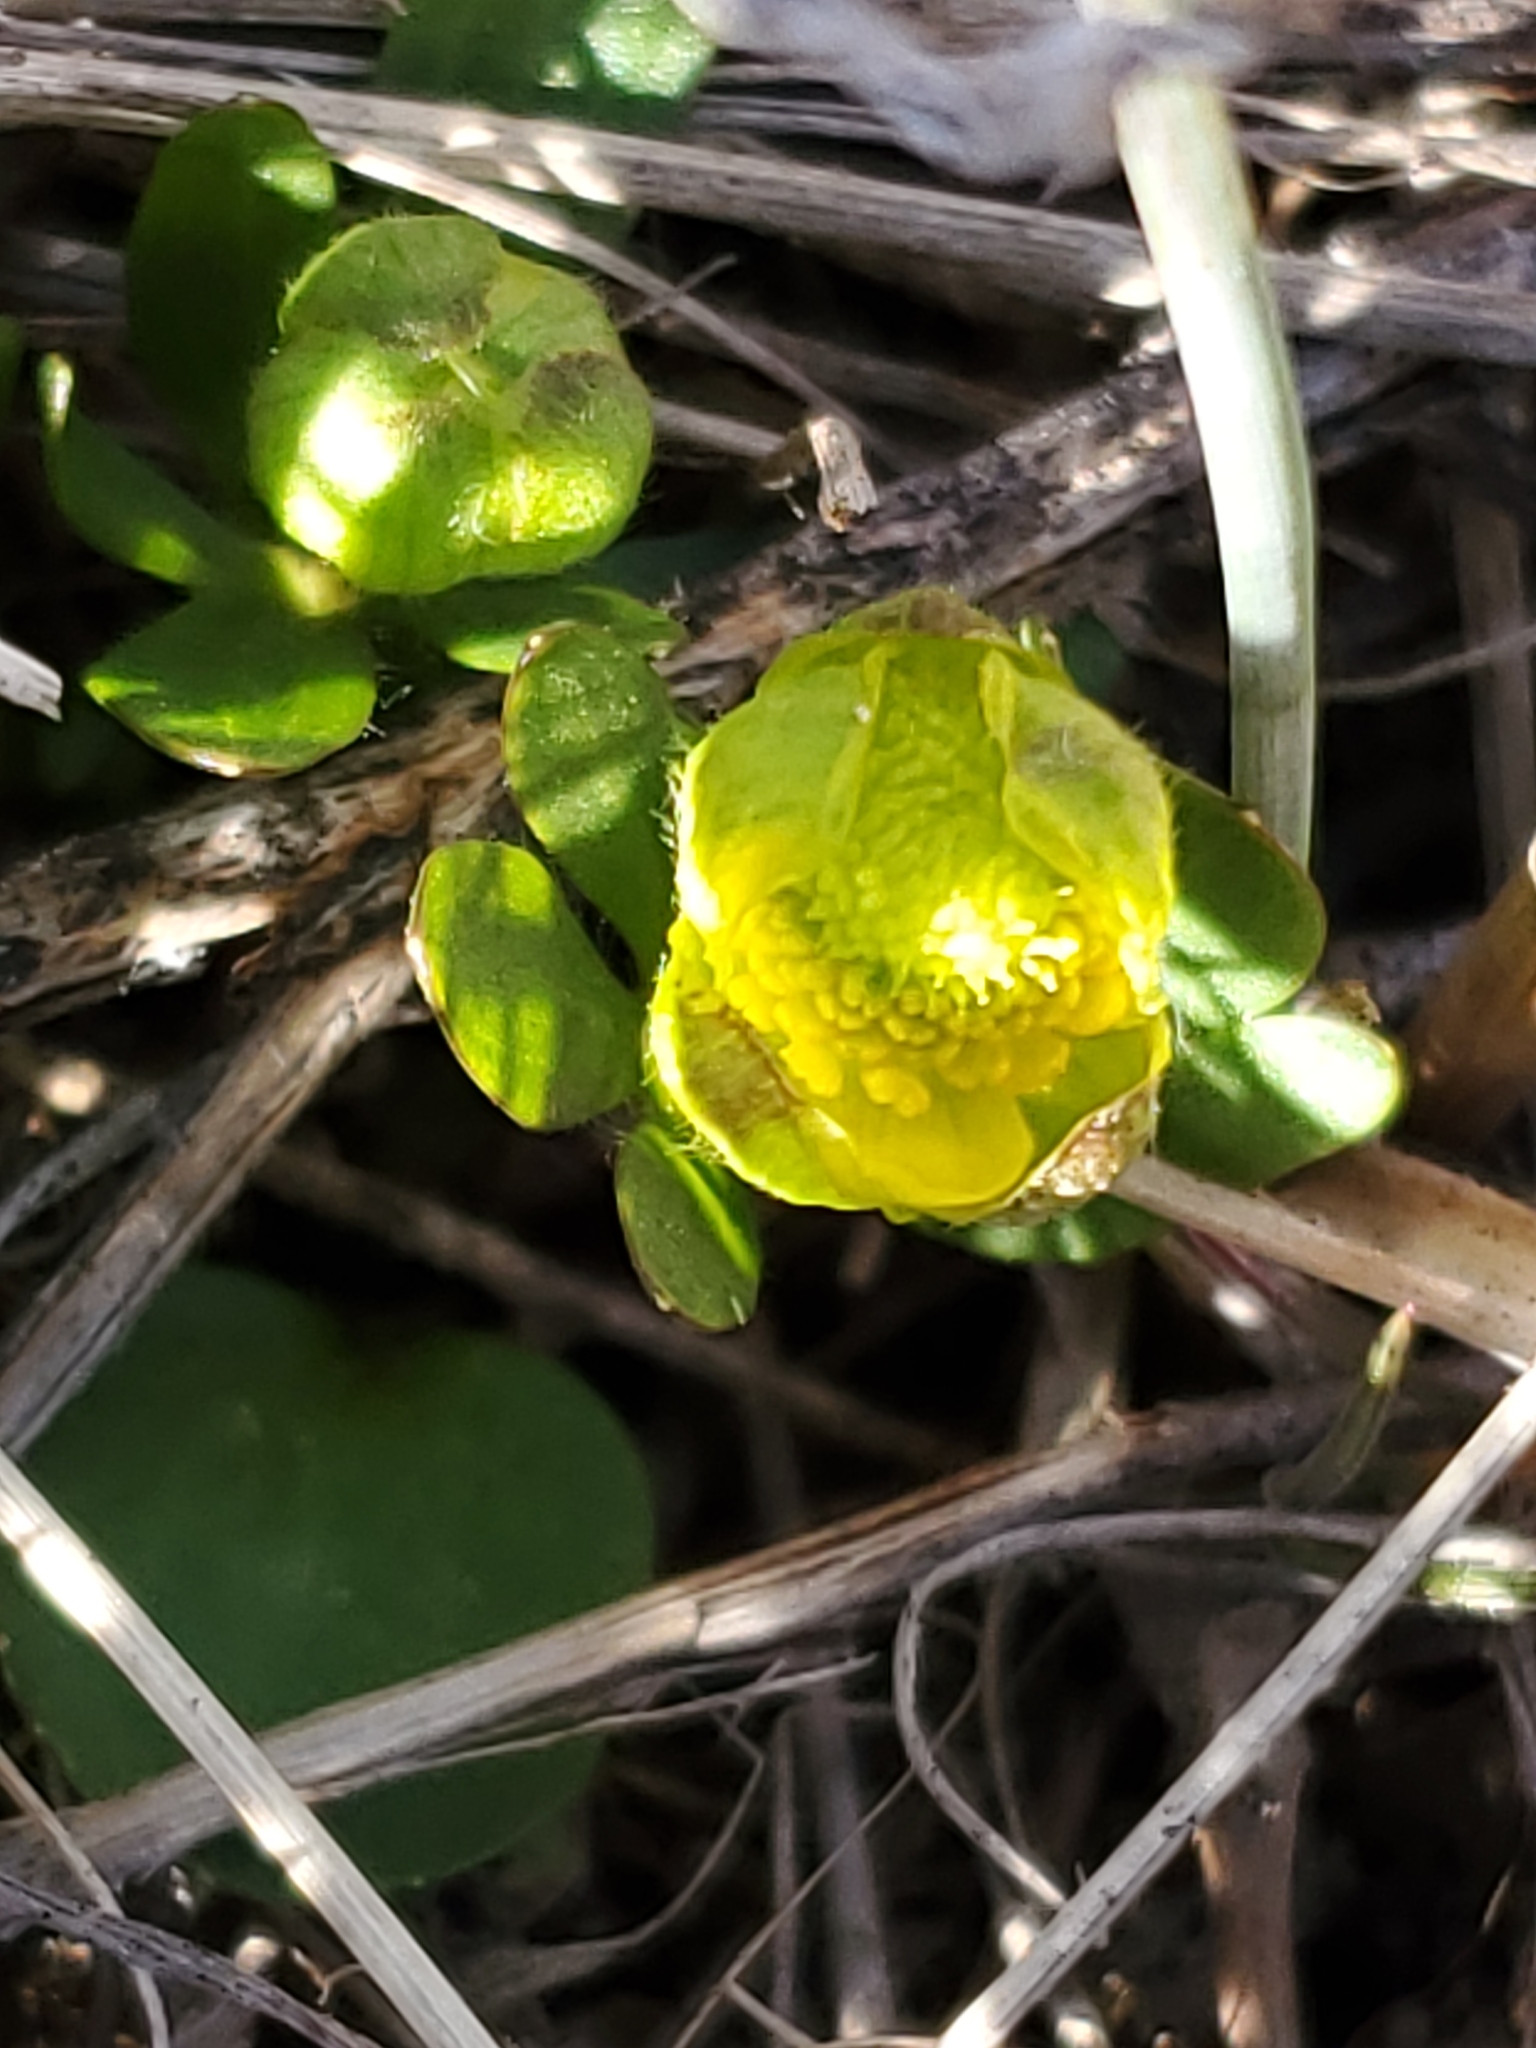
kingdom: Plantae
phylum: Tracheophyta
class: Magnoliopsida
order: Ranunculales
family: Ranunculaceae
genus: Ranunculus
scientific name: Ranunculus glaberrimus
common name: Sagebrush buttercup
